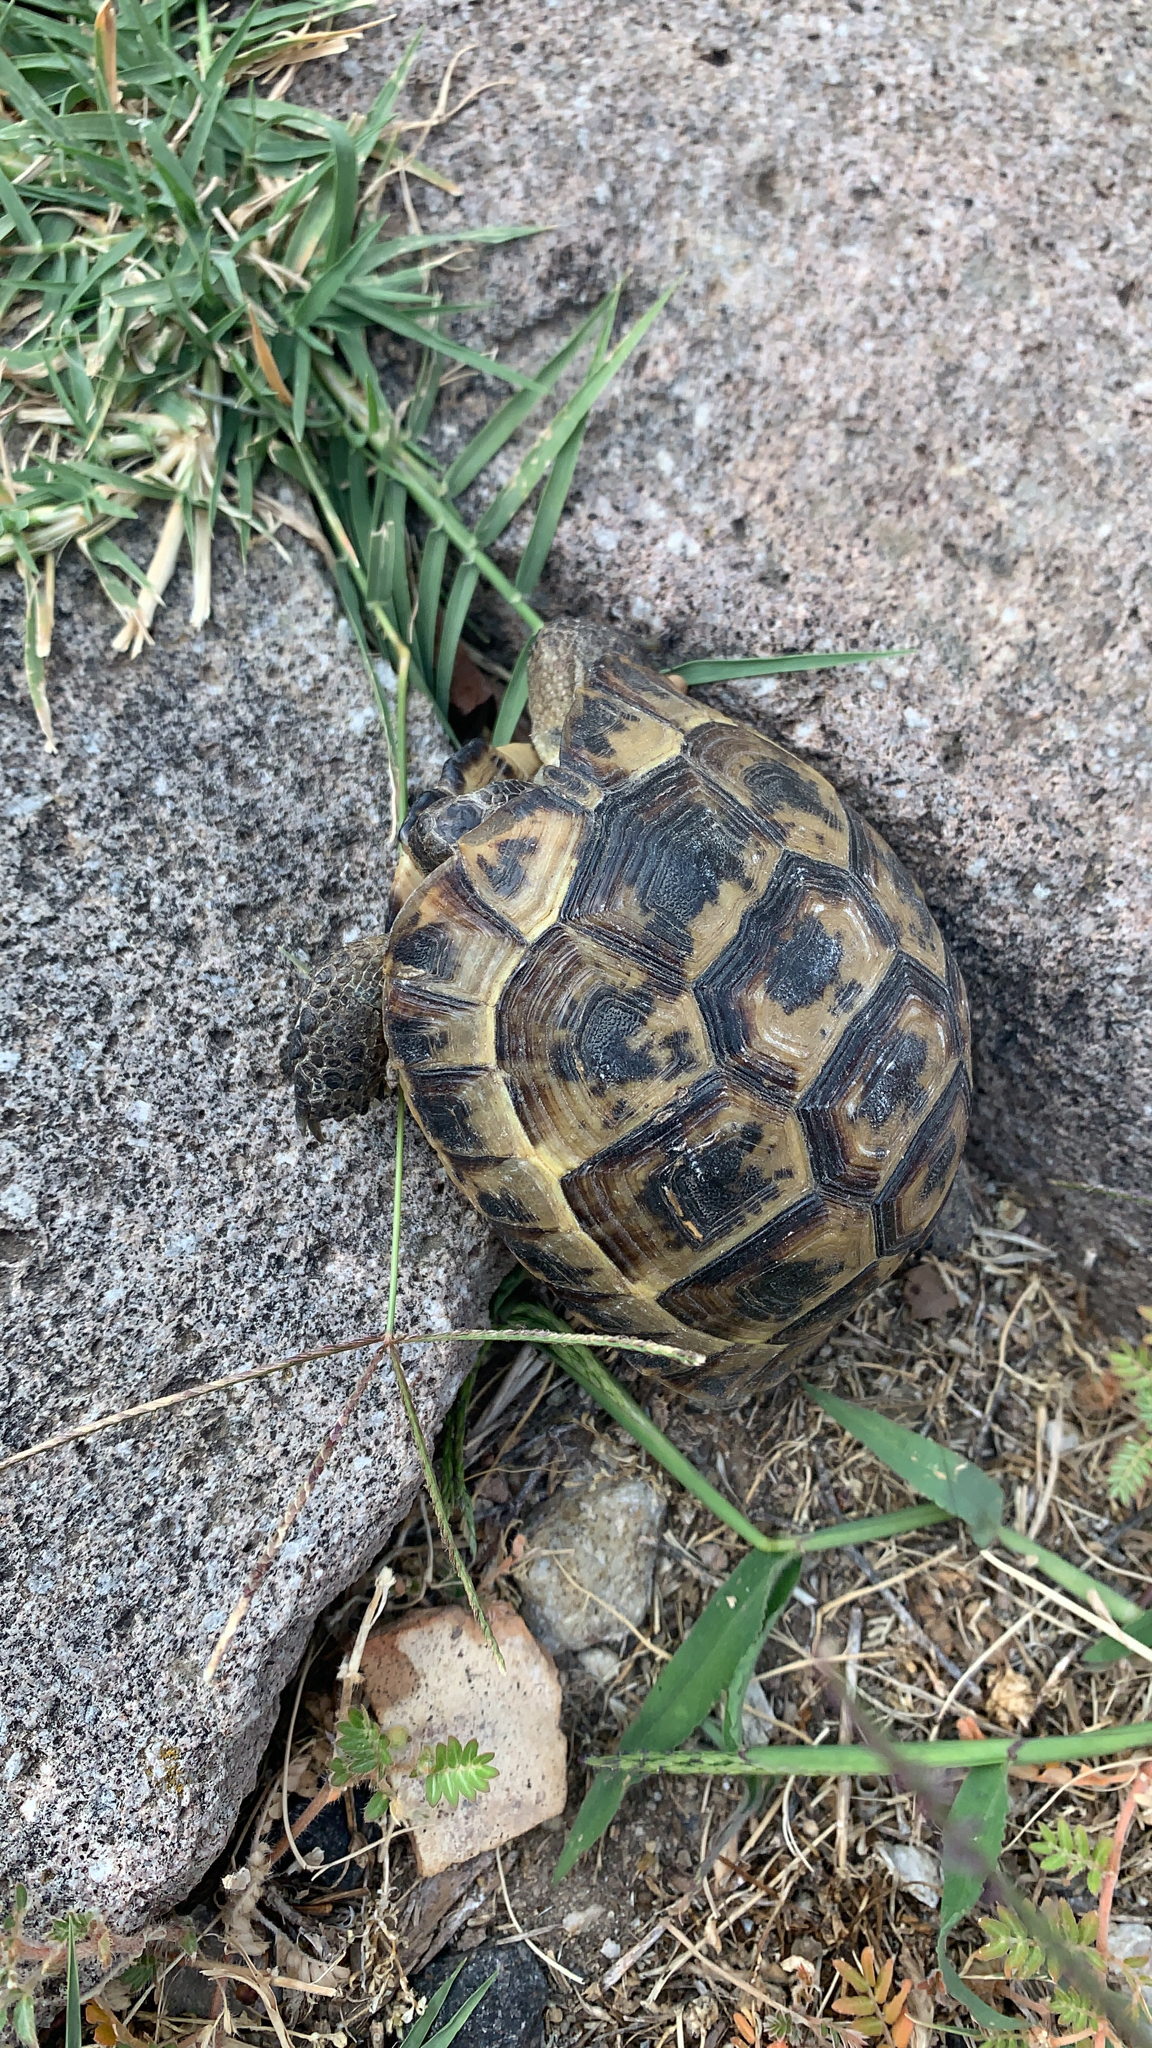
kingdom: Animalia
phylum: Chordata
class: Testudines
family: Testudinidae
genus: Testudo
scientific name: Testudo graeca
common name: Common tortoise
